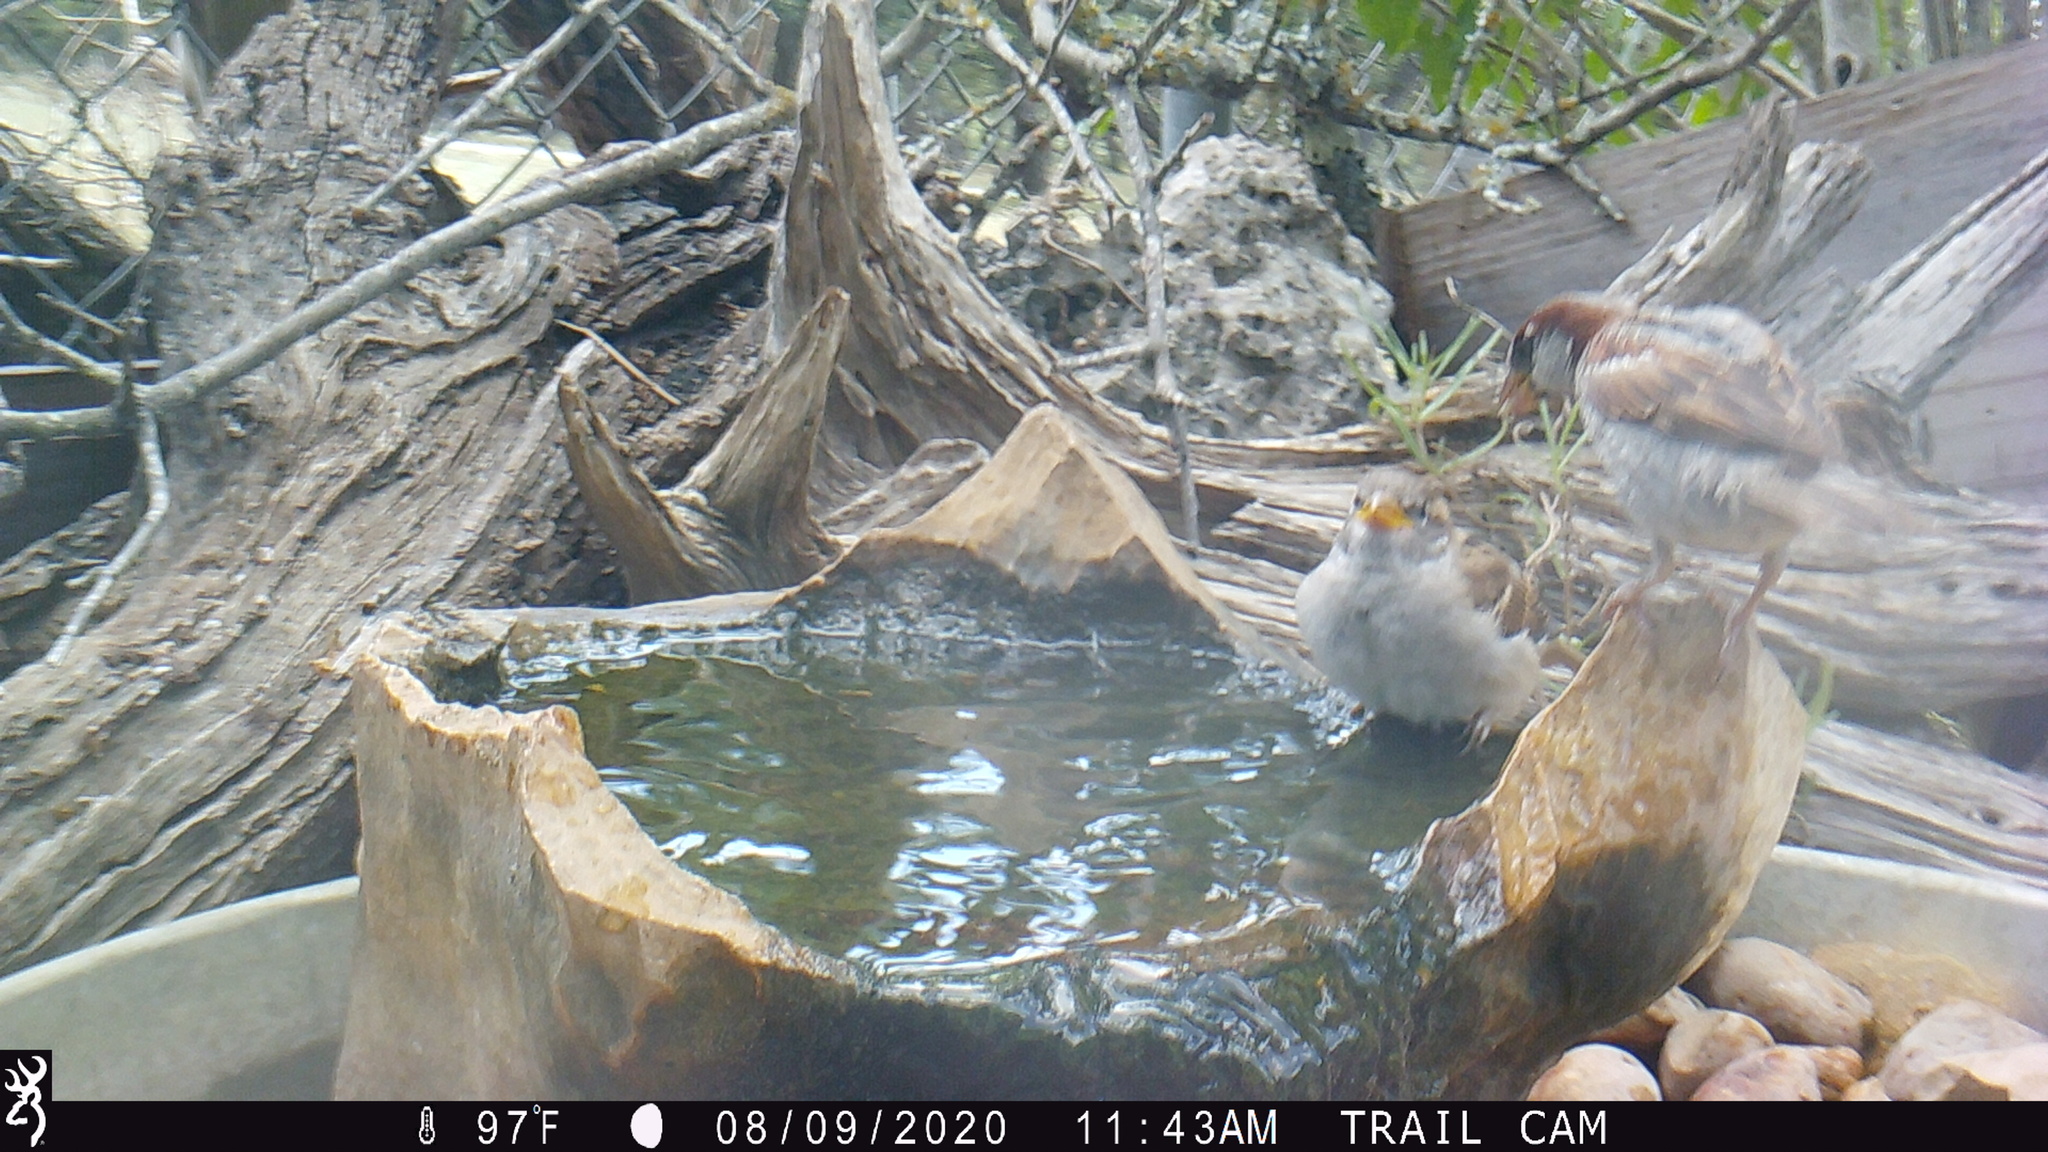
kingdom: Animalia
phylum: Chordata
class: Aves
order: Passeriformes
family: Passeridae
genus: Passer
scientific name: Passer domesticus
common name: House sparrow
